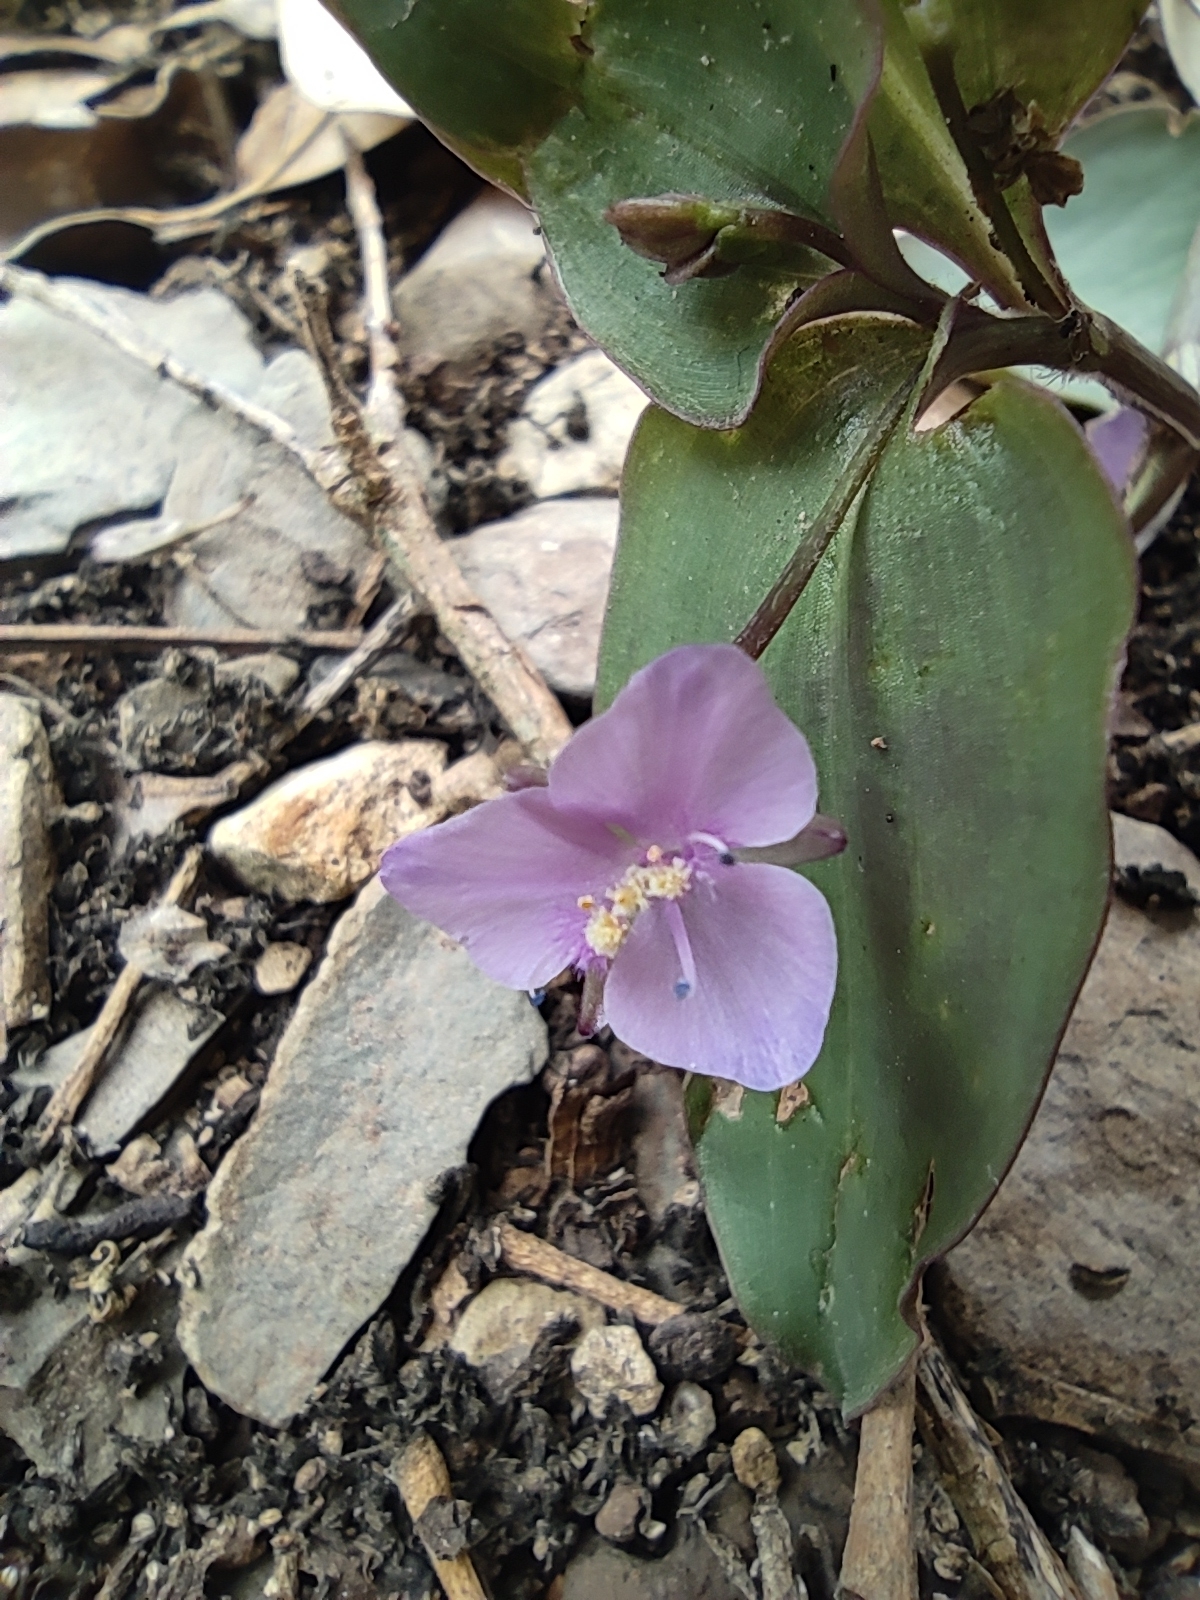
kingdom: Plantae
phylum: Tracheophyta
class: Liliopsida
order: Commelinales
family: Commelinaceae
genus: Tinantia
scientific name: Tinantia pringlei
